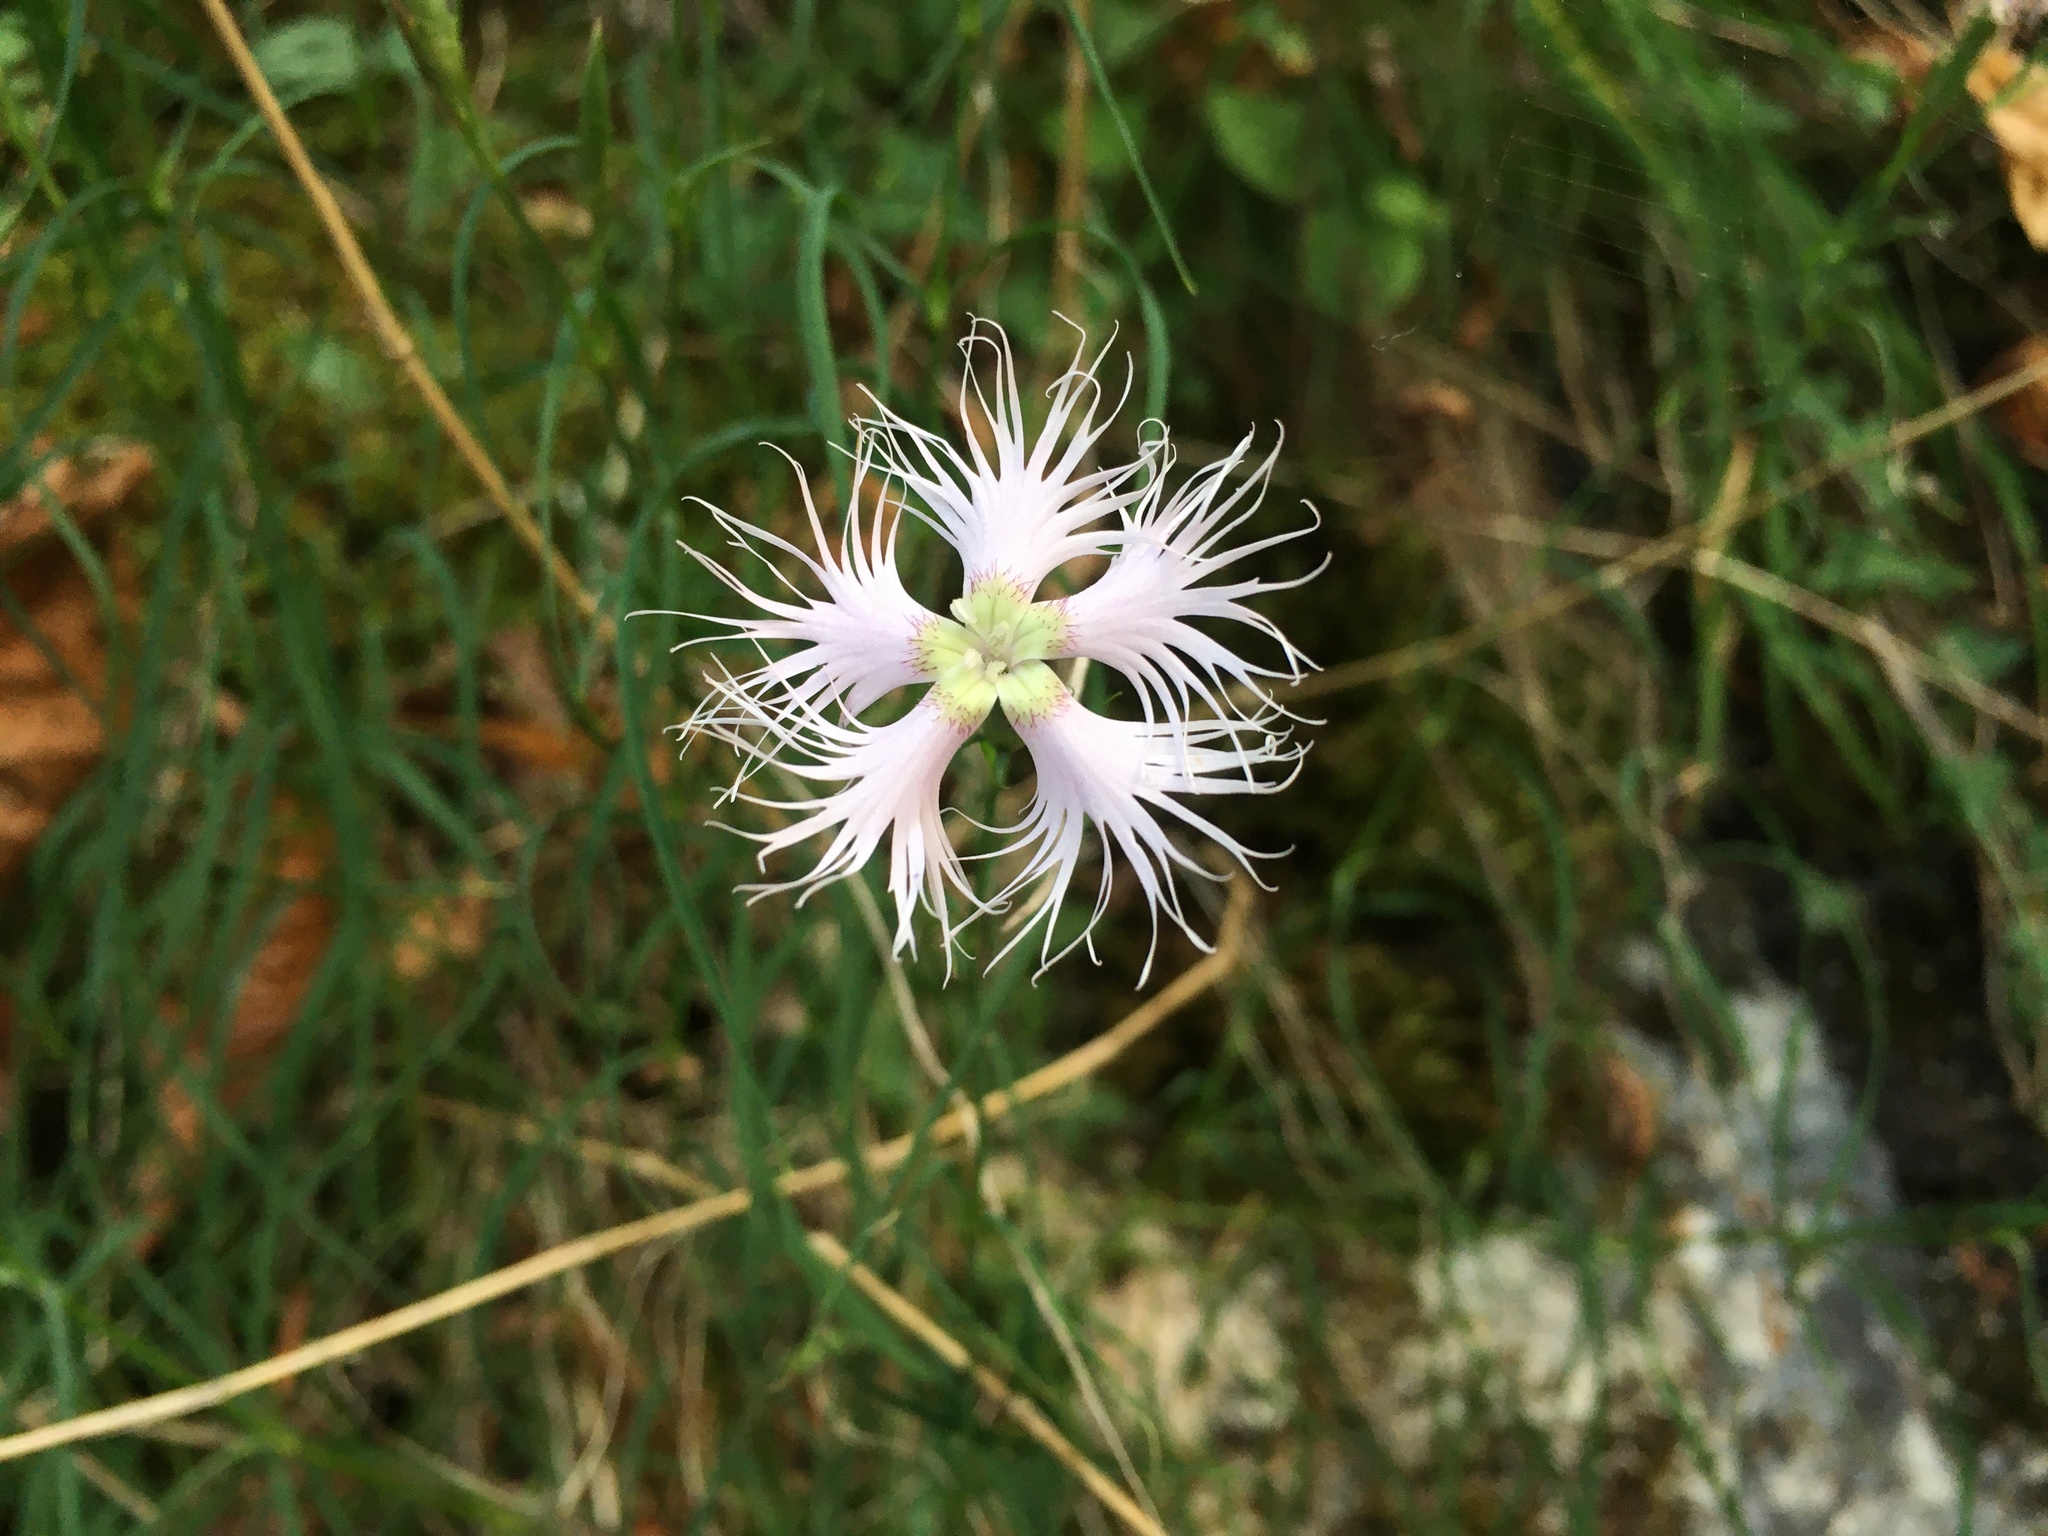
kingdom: Plantae
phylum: Tracheophyta
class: Magnoliopsida
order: Caryophyllales
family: Caryophyllaceae
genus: Dianthus
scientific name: Dianthus hyssopifolius
